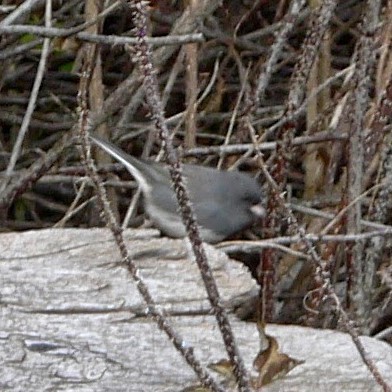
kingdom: Animalia
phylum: Chordata
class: Aves
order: Passeriformes
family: Passerellidae
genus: Junco
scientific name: Junco hyemalis
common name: Dark-eyed junco
